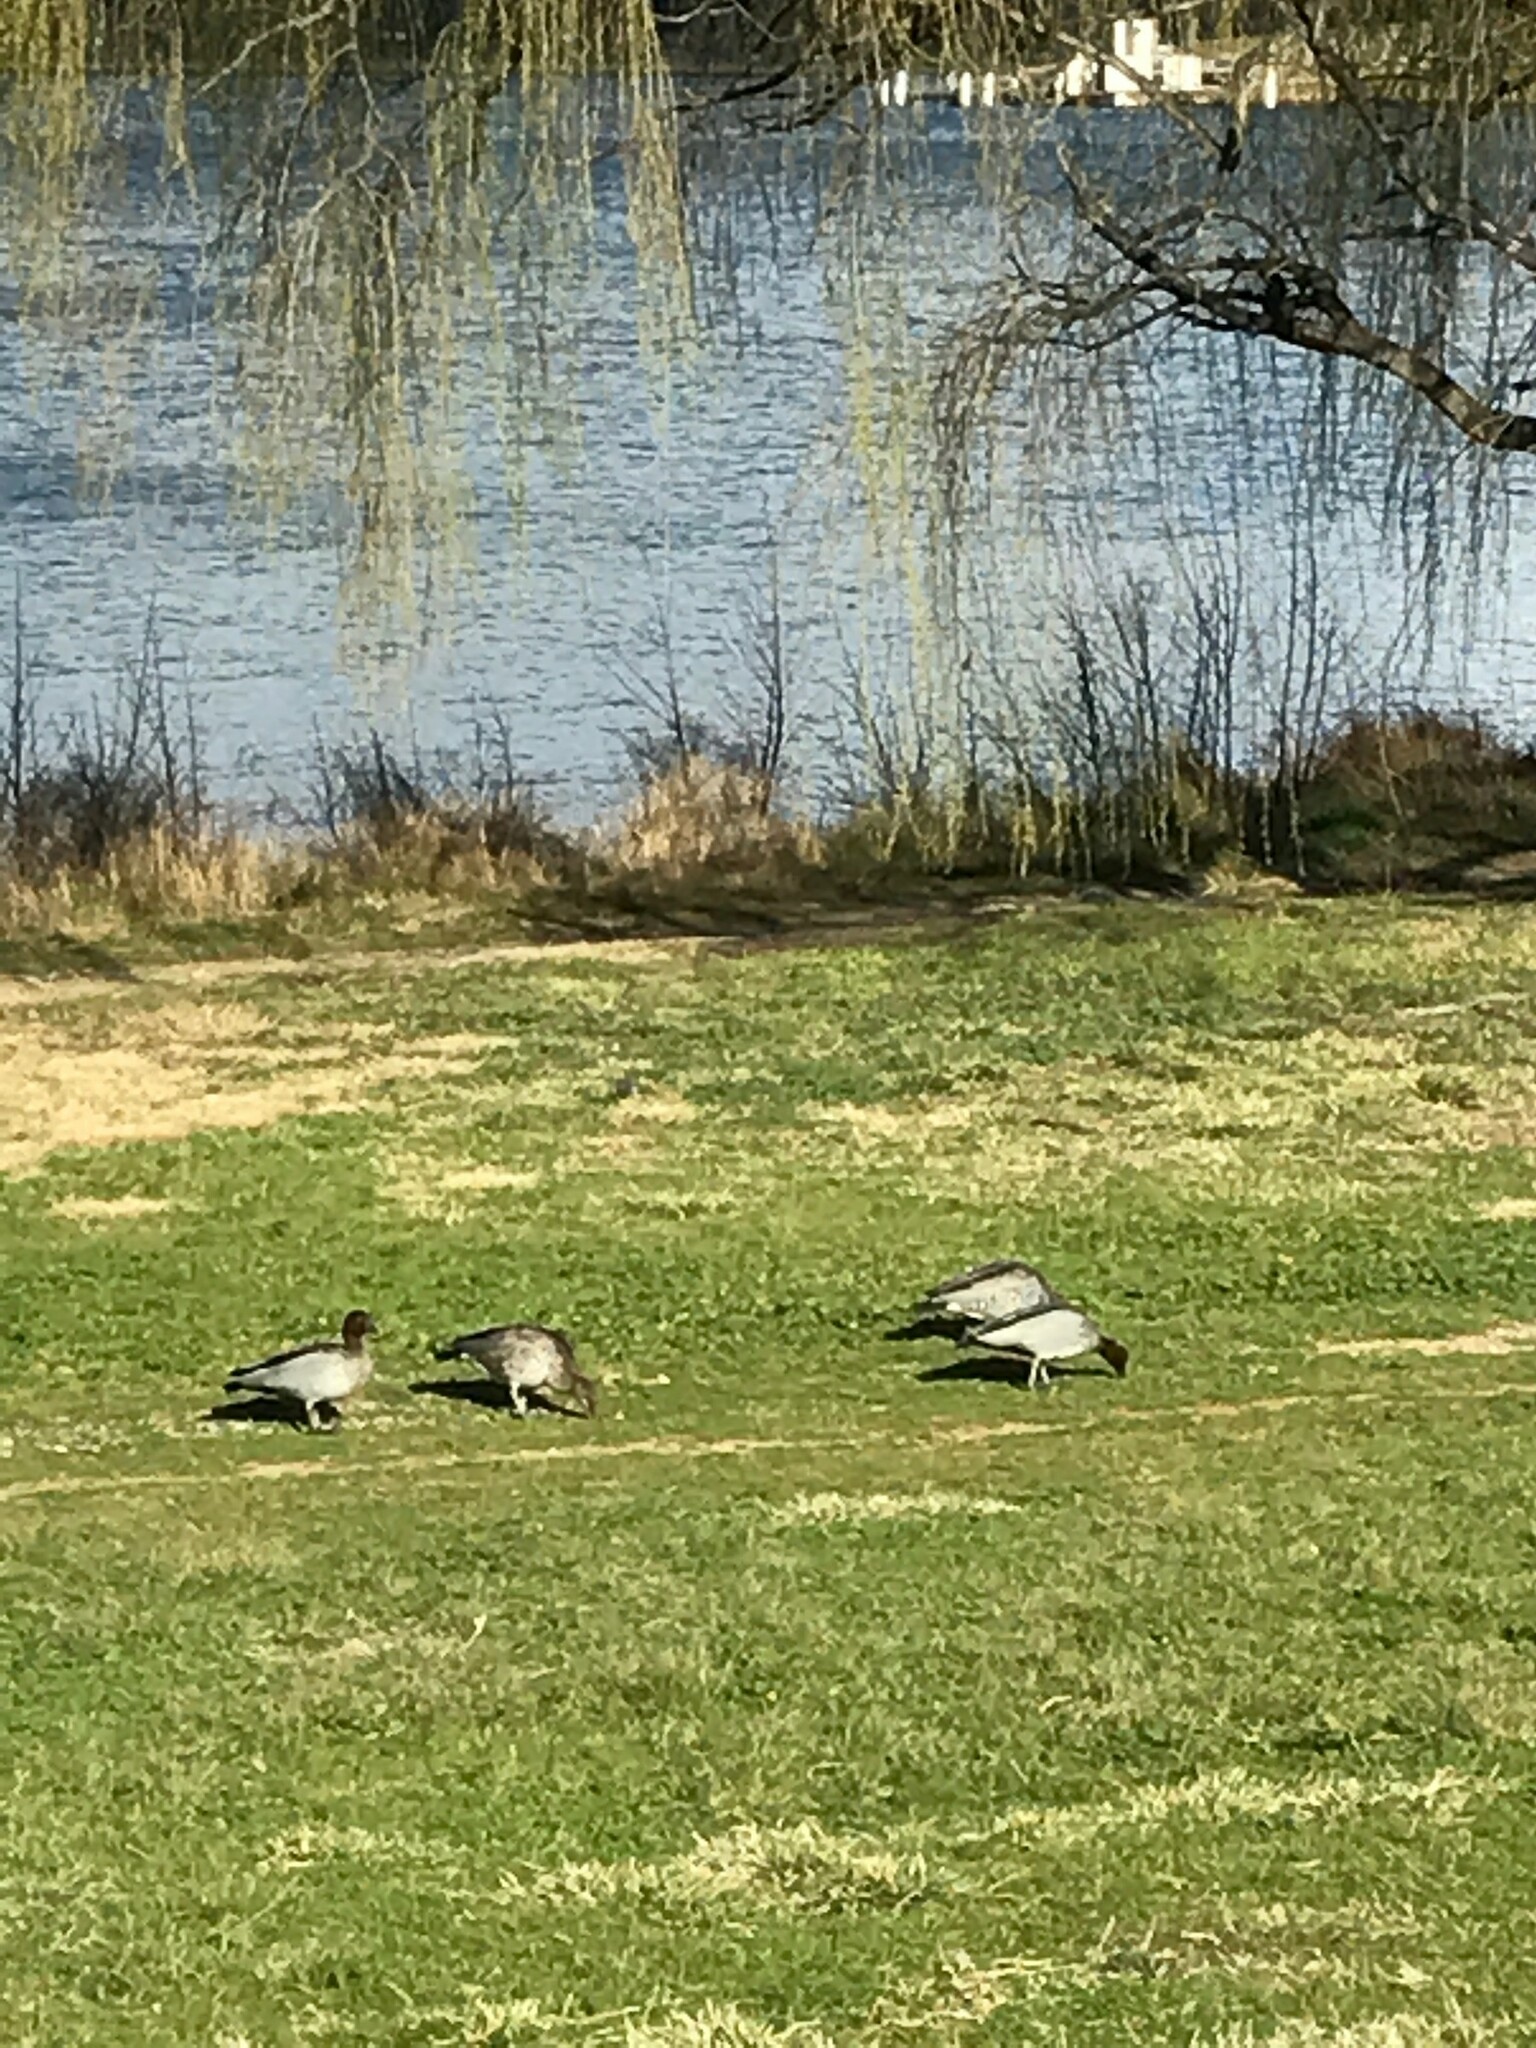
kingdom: Animalia
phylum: Chordata
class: Aves
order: Anseriformes
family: Anatidae
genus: Chenonetta
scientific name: Chenonetta jubata
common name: Maned duck
